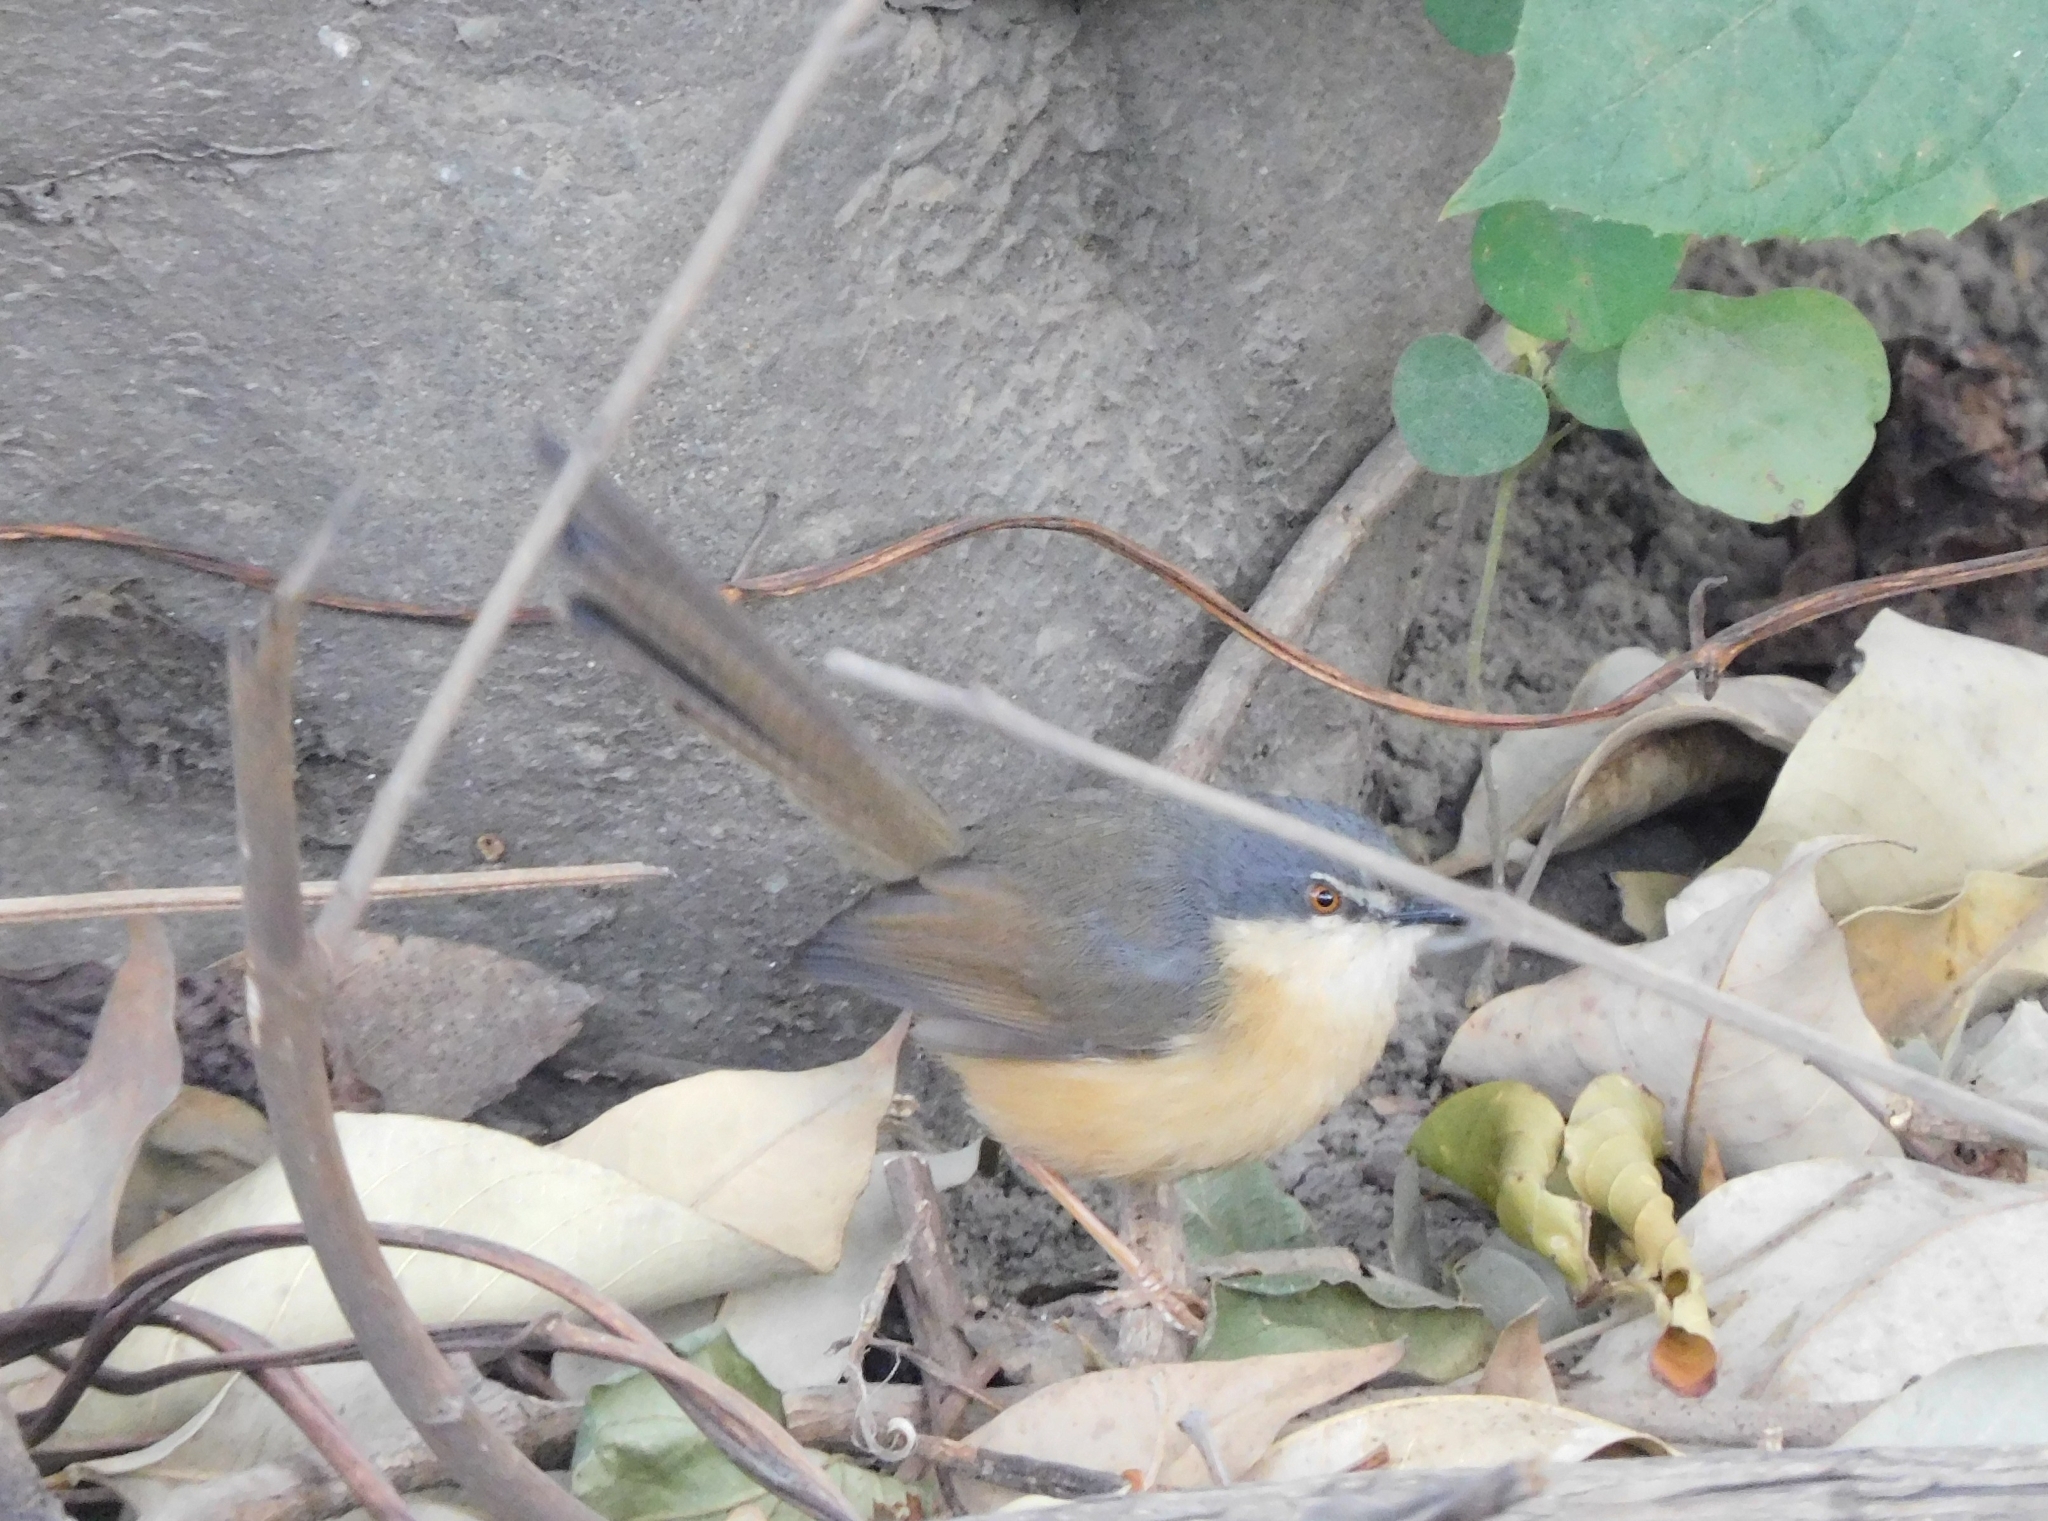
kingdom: Animalia
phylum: Chordata
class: Aves
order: Passeriformes
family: Cisticolidae
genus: Prinia
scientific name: Prinia socialis
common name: Ashy prinia
